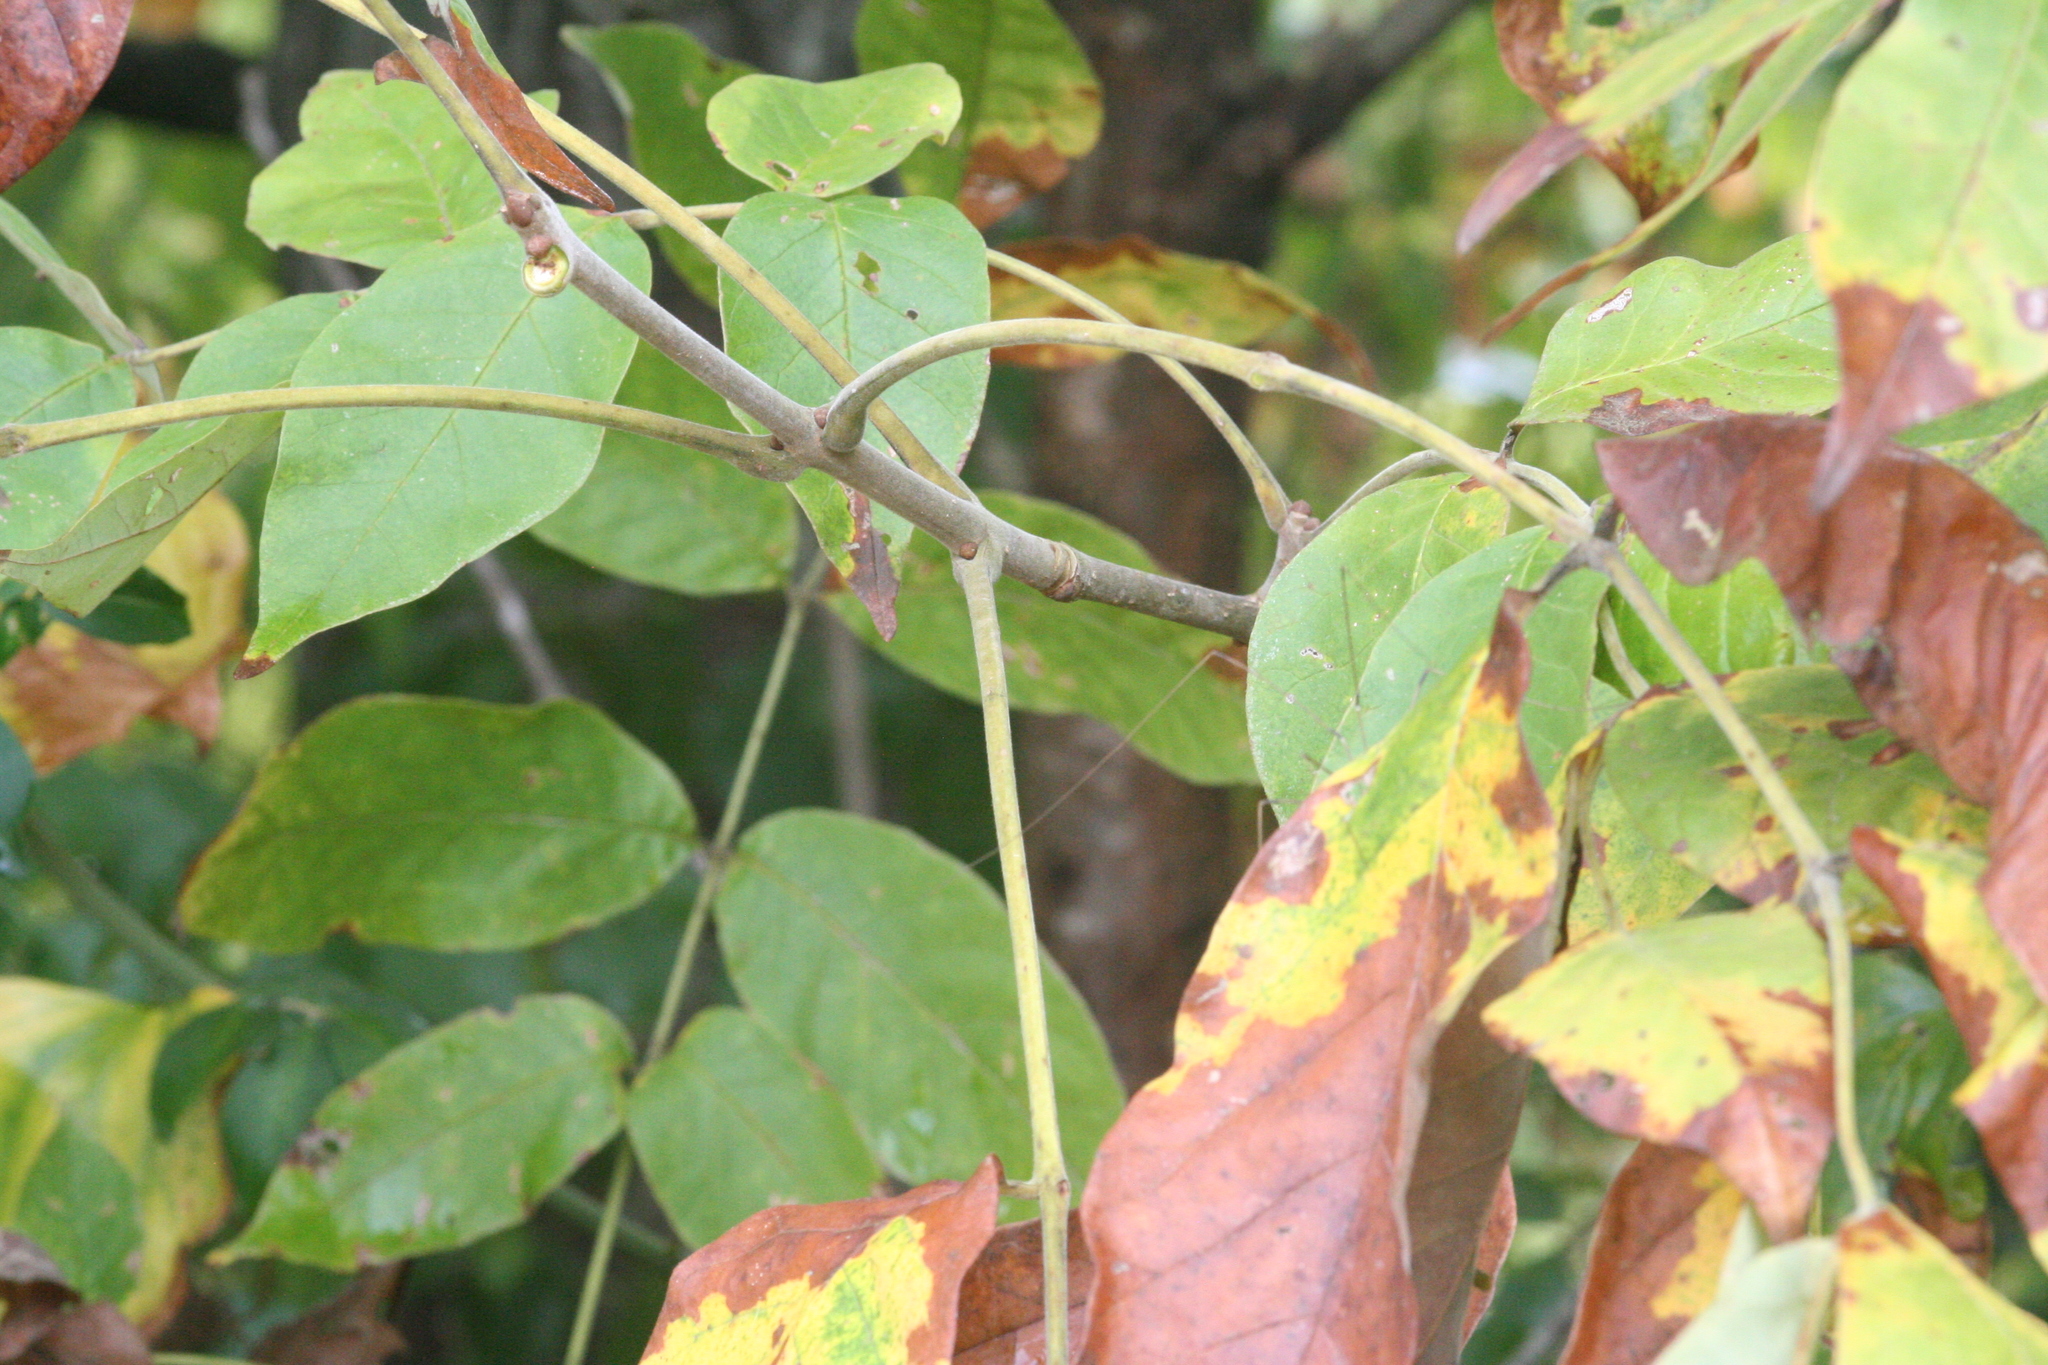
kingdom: Plantae
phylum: Tracheophyta
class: Magnoliopsida
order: Lamiales
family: Oleaceae
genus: Fraxinus
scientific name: Fraxinus americana
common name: White ash
